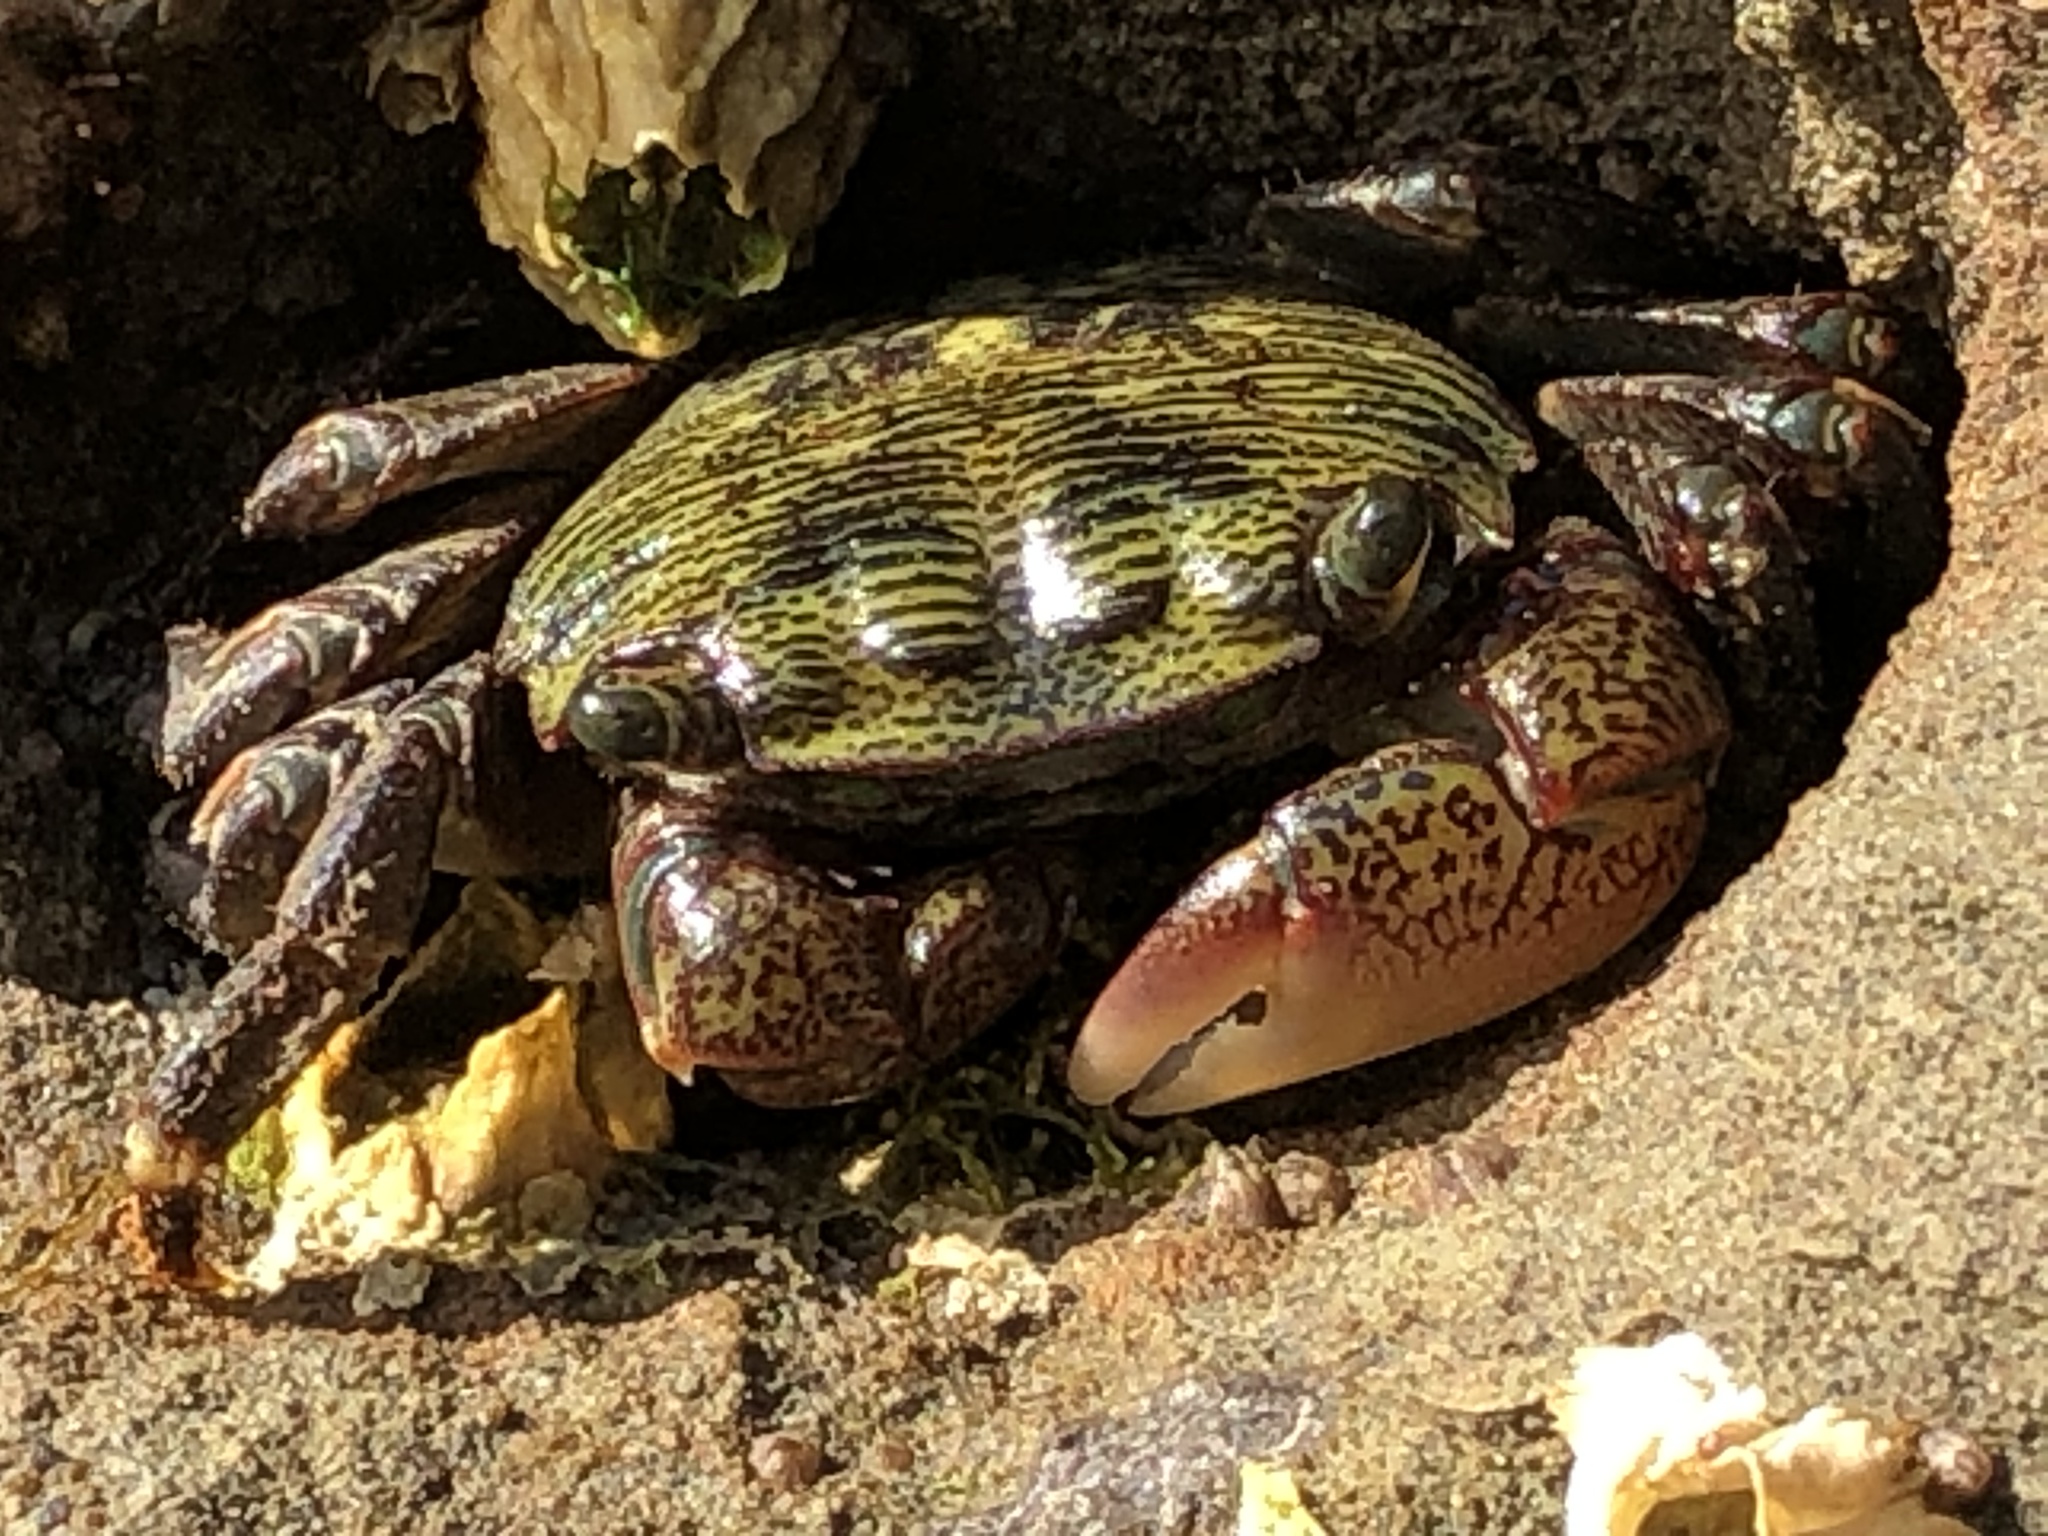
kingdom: Animalia
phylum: Arthropoda
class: Malacostraca
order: Decapoda
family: Grapsidae
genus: Pachygrapsus
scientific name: Pachygrapsus crassipes
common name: Striped shore crab
